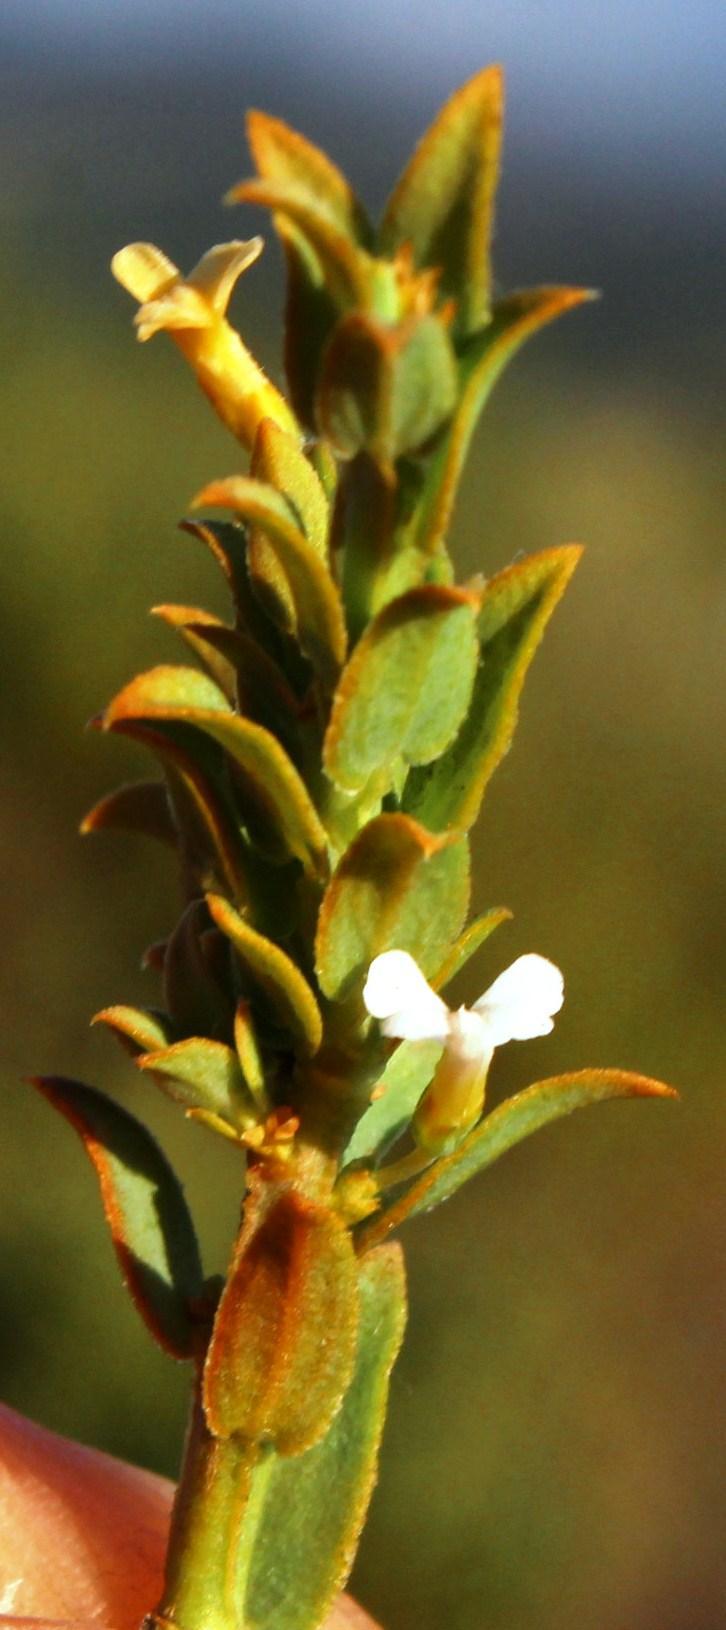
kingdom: Plantae
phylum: Tracheophyta
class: Magnoliopsida
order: Fabales
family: Polygalaceae
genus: Muraltia
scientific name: Muraltia trinervia
